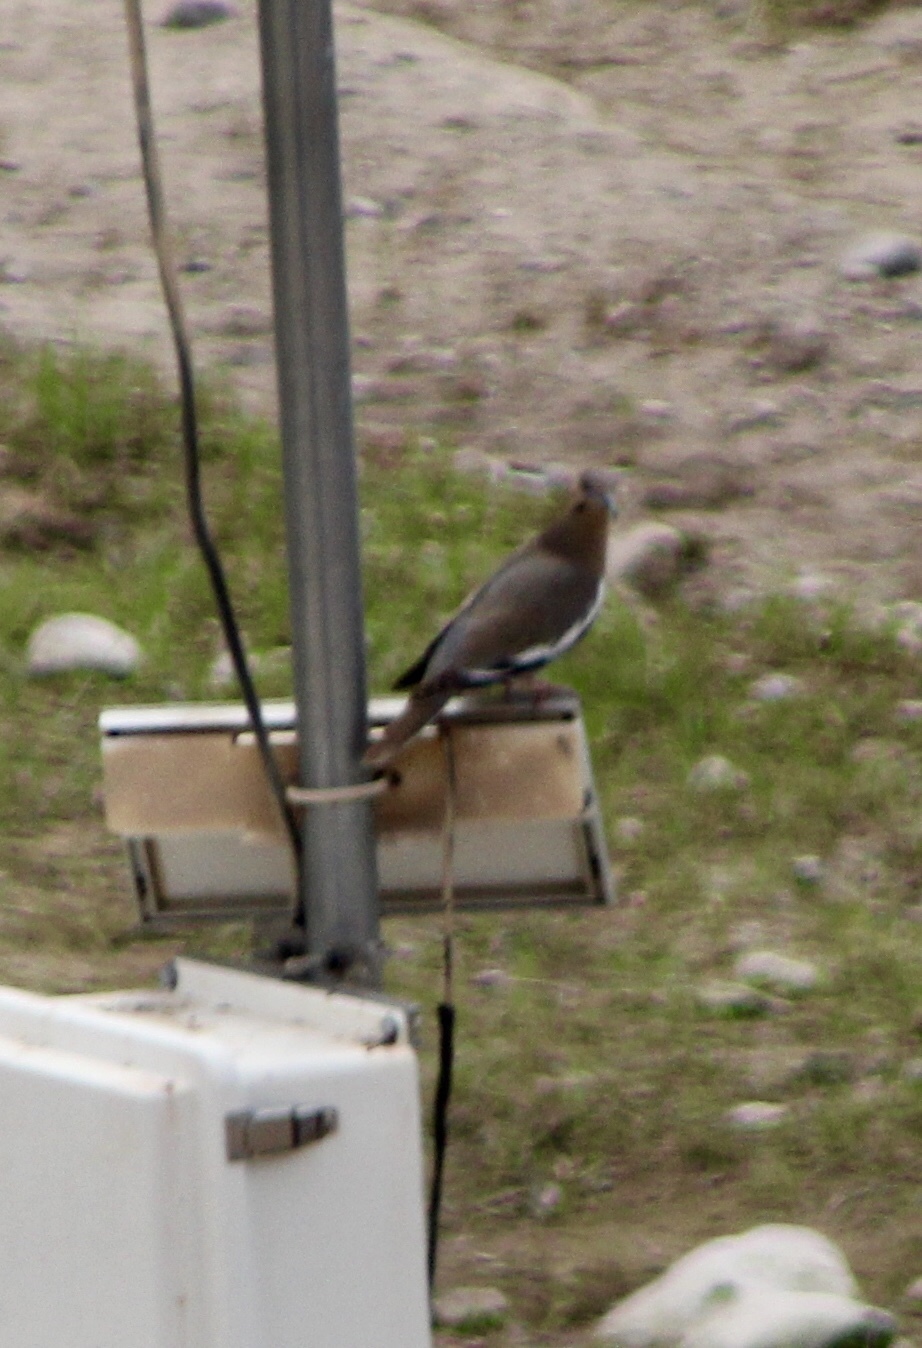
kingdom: Animalia
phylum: Chordata
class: Aves
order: Columbiformes
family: Columbidae
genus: Zenaida
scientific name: Zenaida asiatica
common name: White-winged dove
